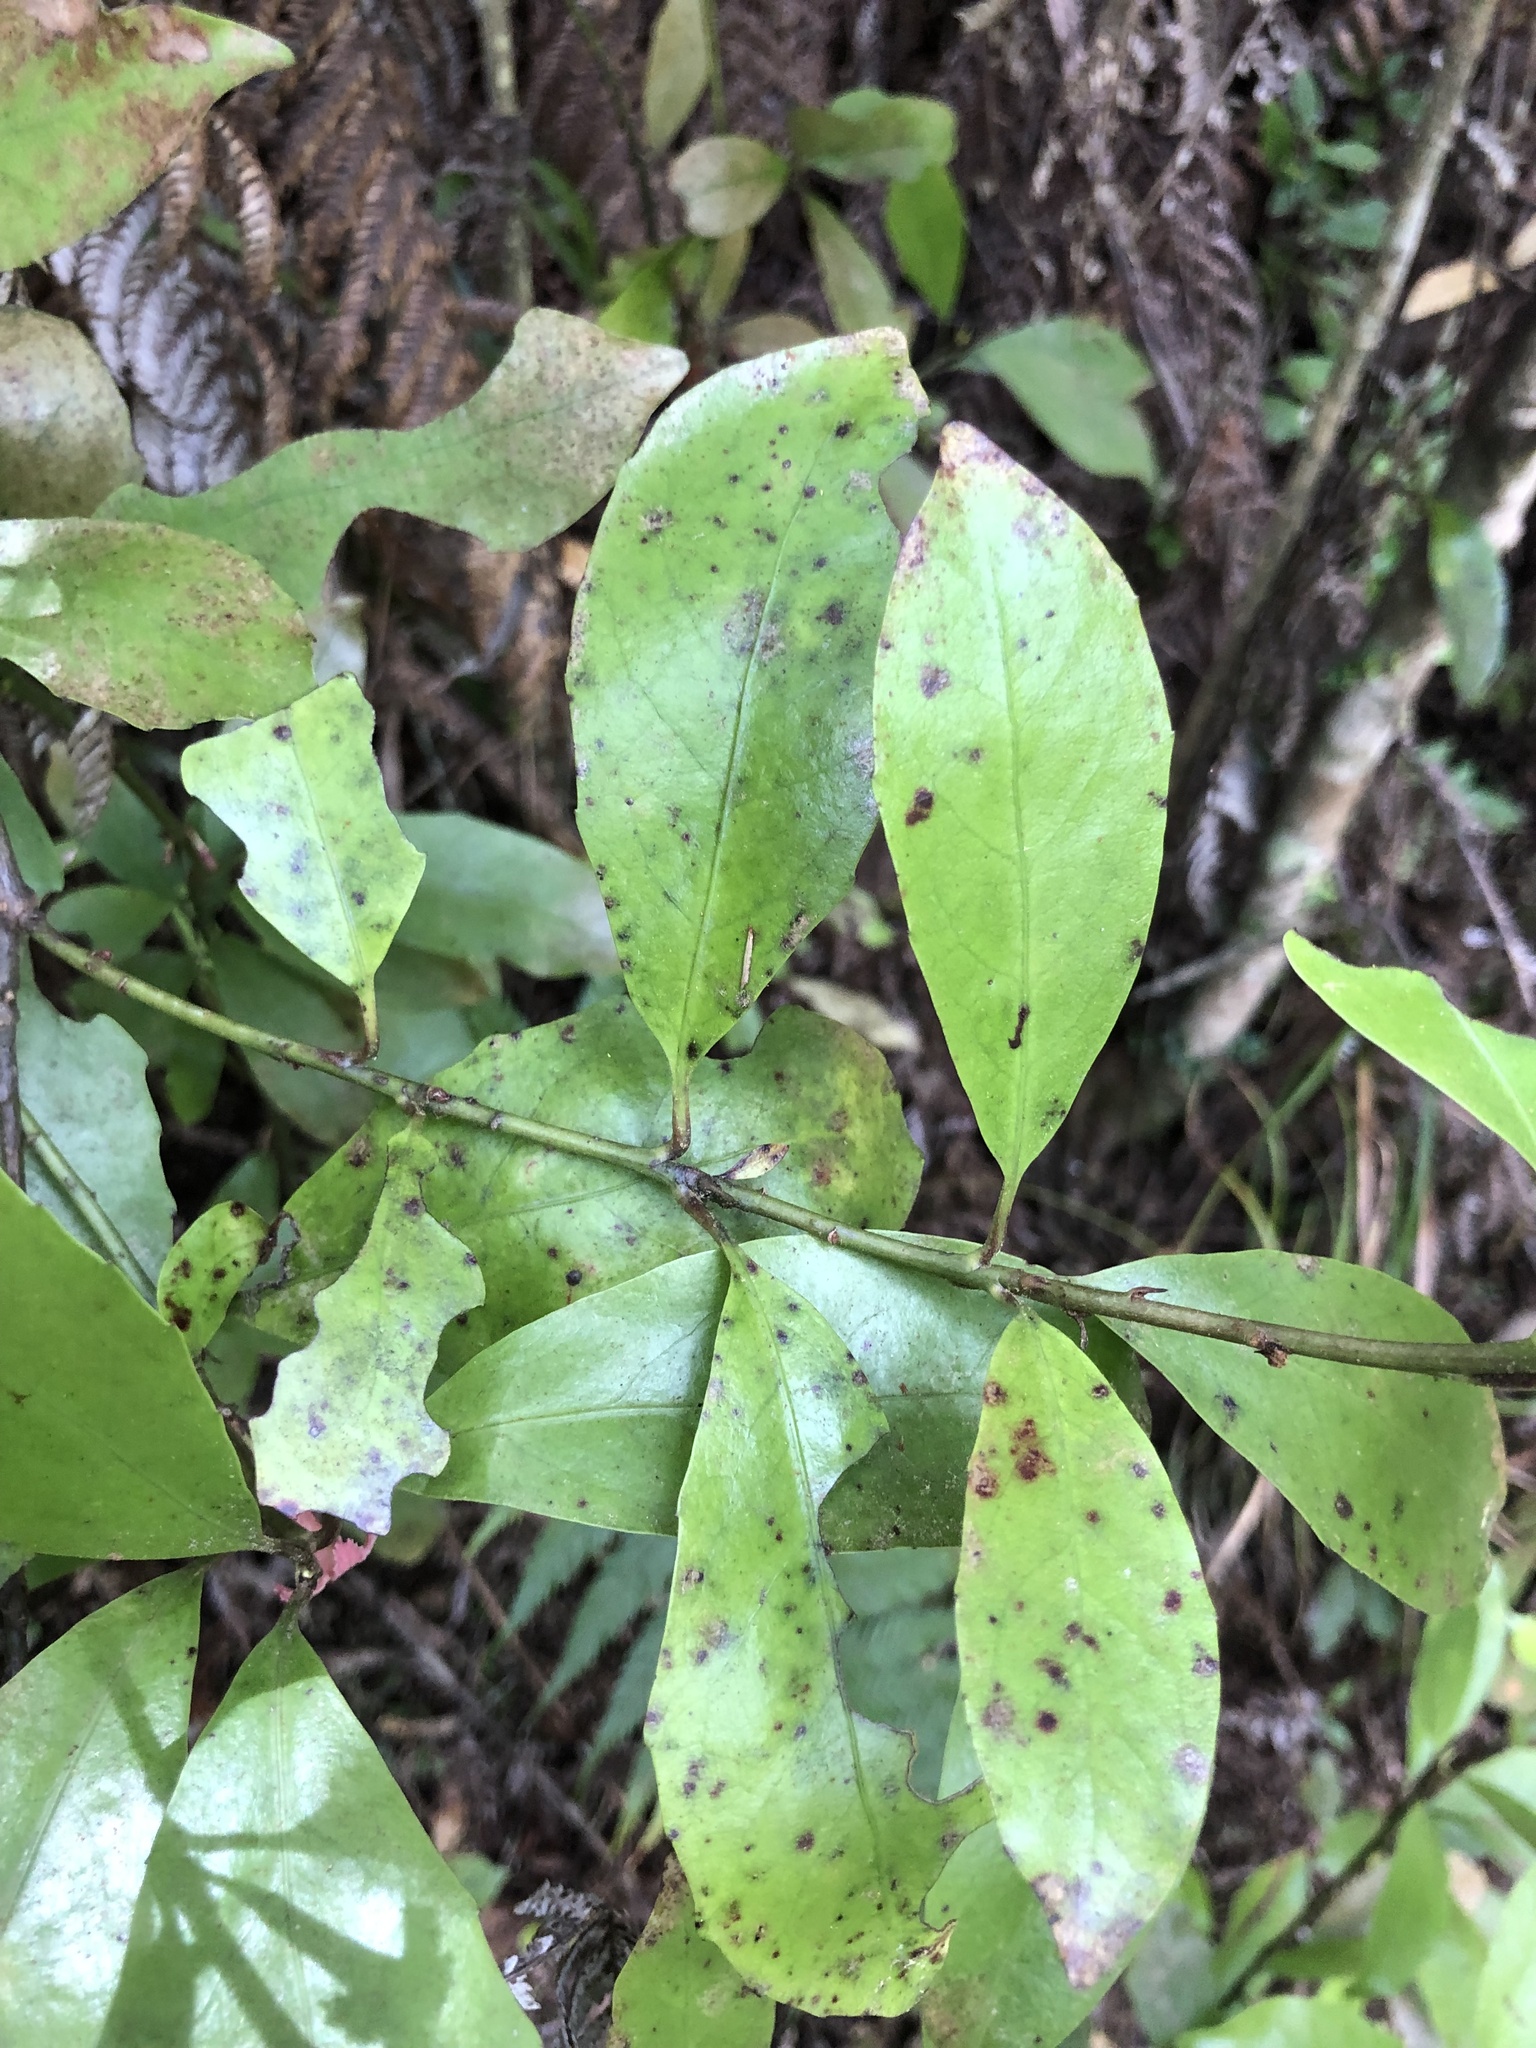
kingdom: Plantae
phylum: Tracheophyta
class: Magnoliopsida
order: Asterales
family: Alseuosmiaceae
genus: Alseuosmia
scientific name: Alseuosmia macrophylla
